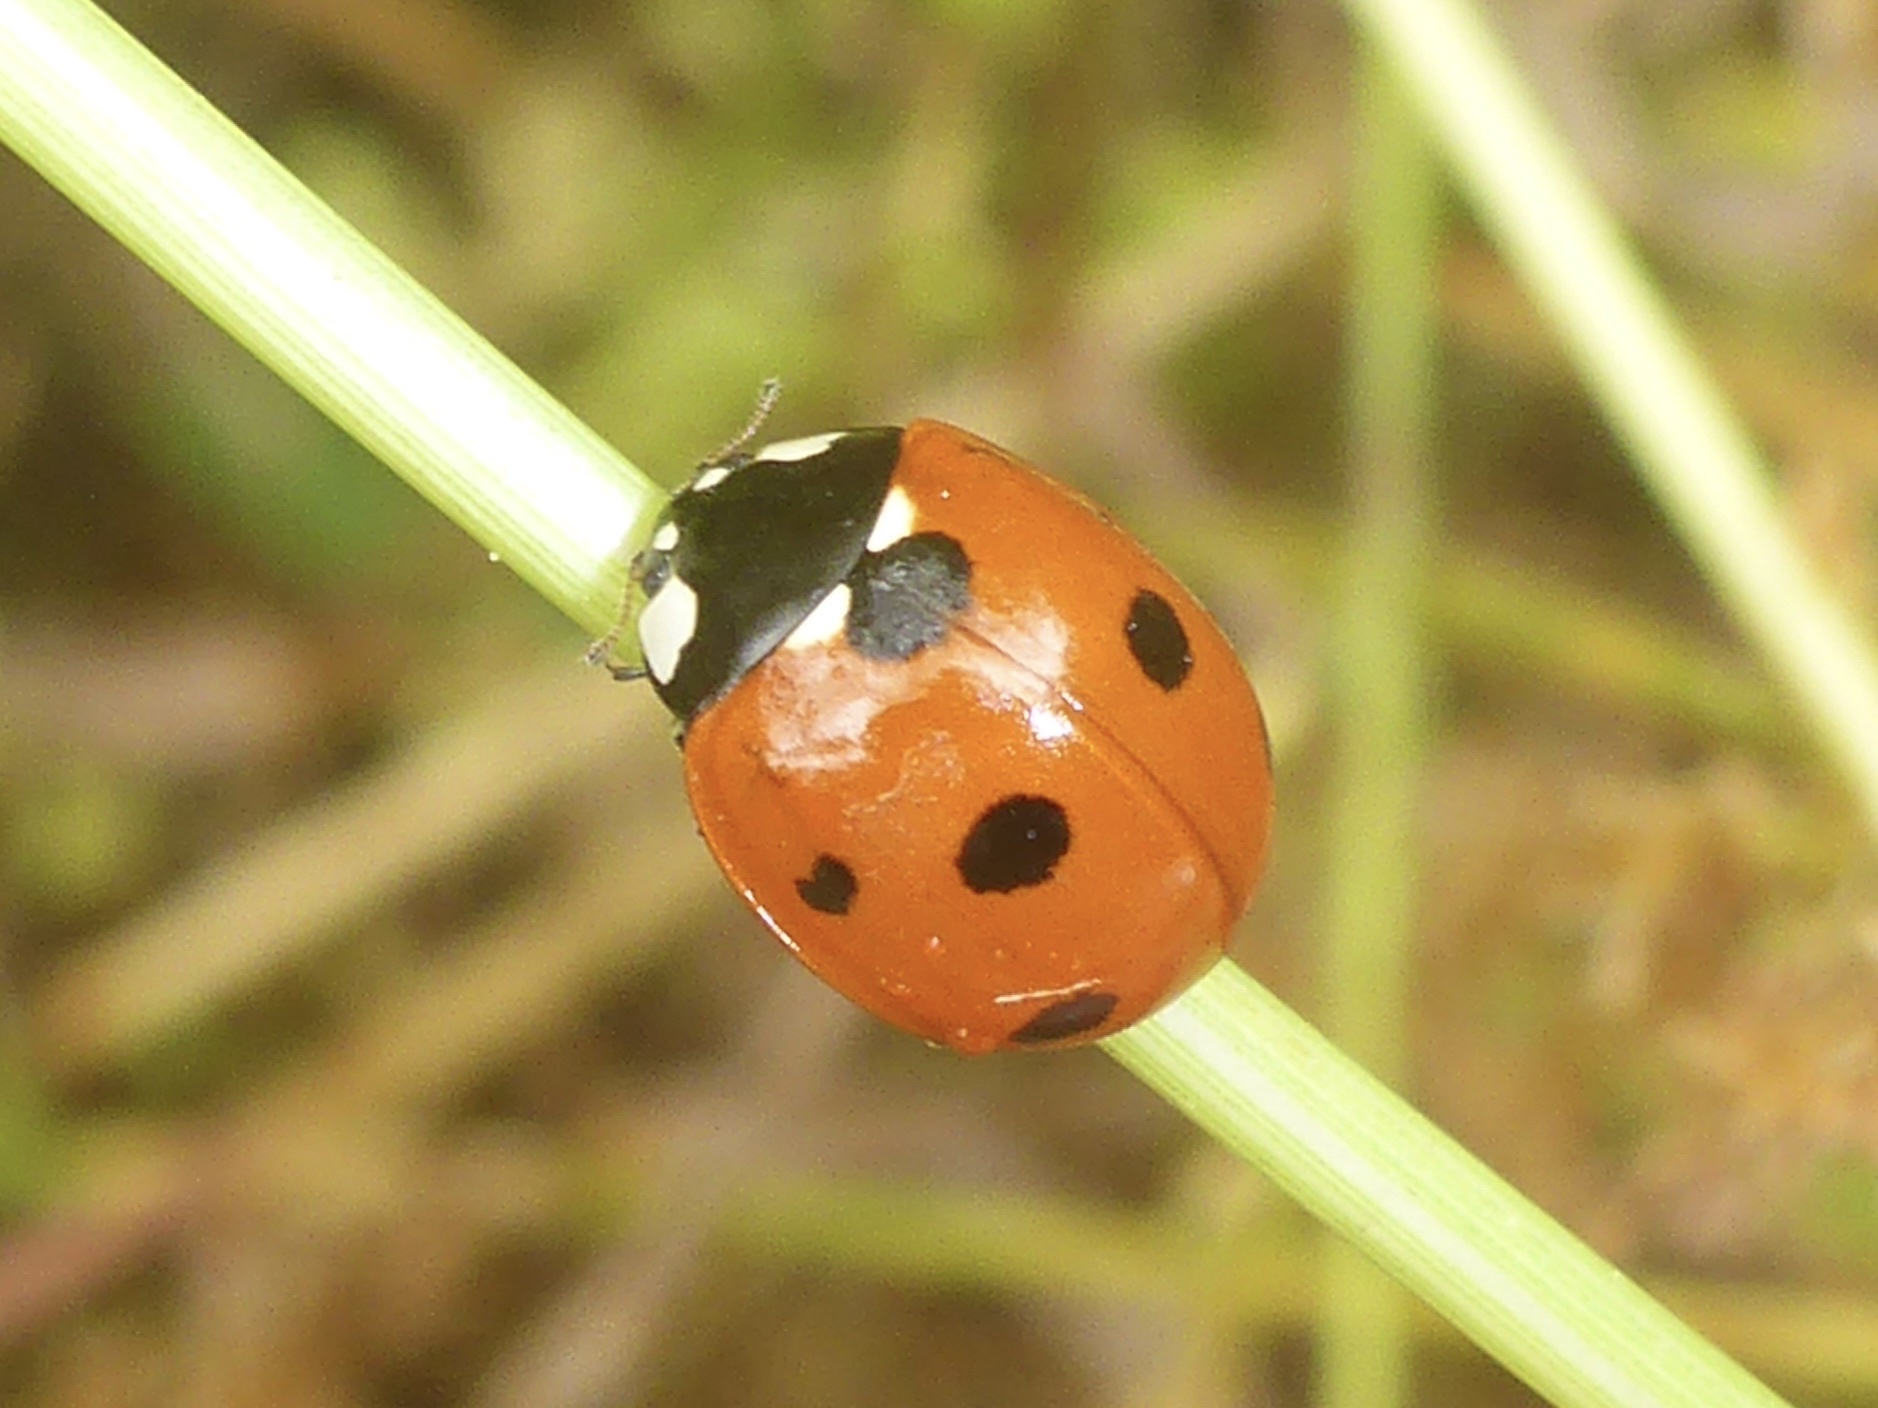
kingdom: Animalia
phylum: Arthropoda
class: Insecta
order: Coleoptera
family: Coccinellidae
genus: Coccinella
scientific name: Coccinella septempunctata
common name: Sevenspotted lady beetle
